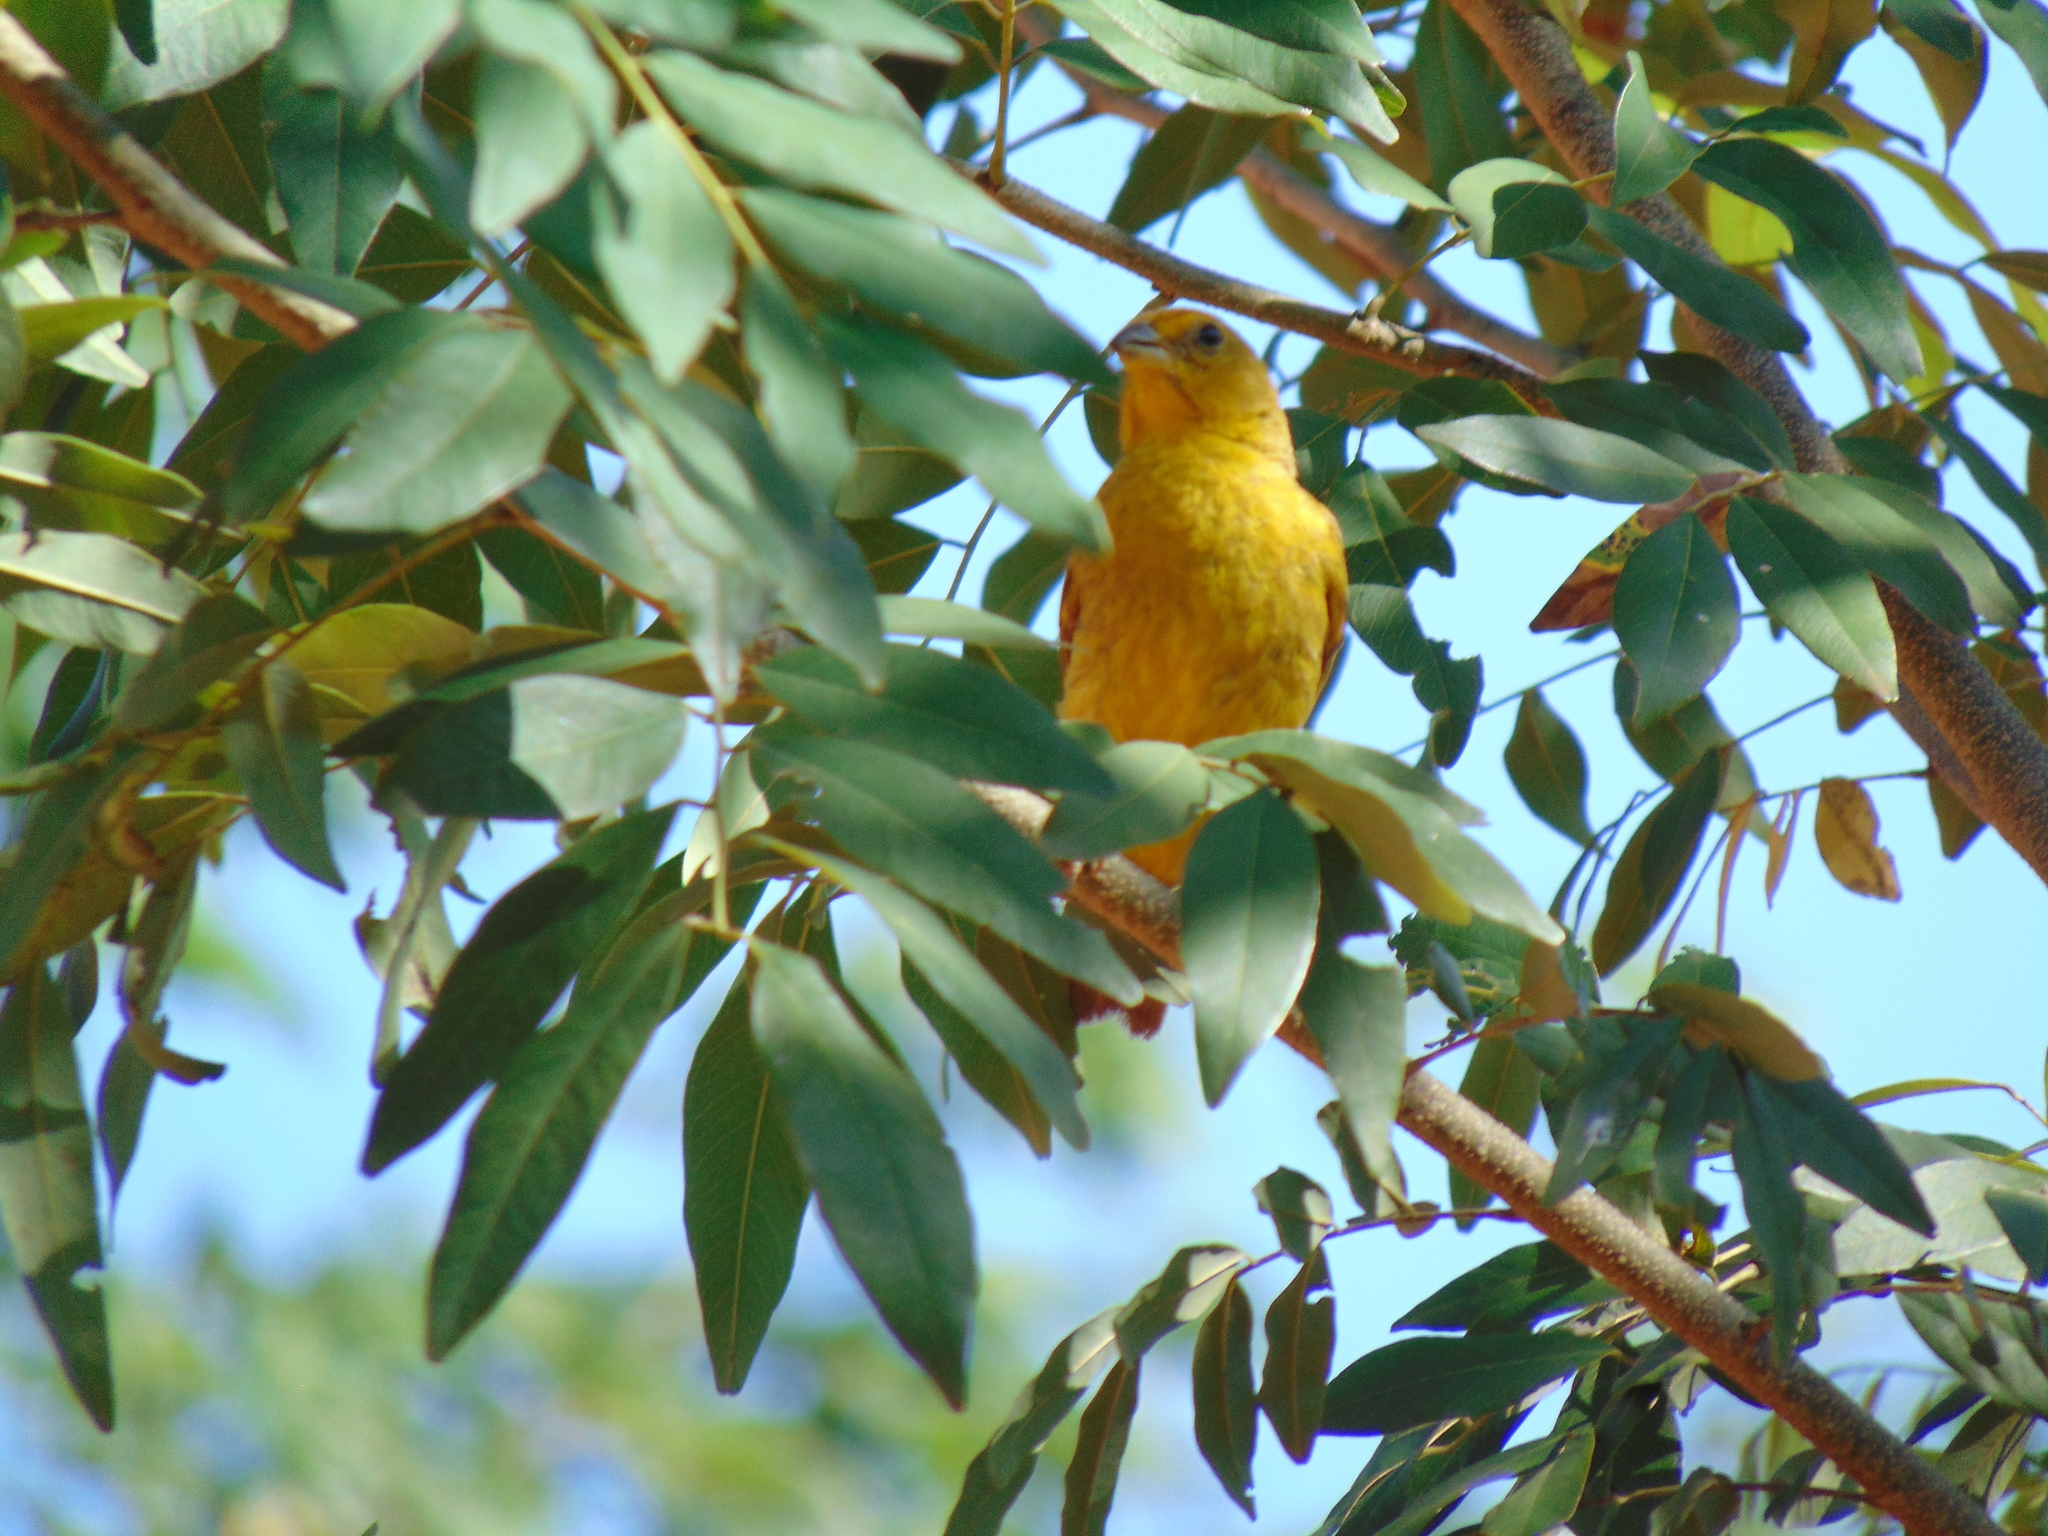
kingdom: Animalia
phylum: Chordata
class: Aves
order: Passeriformes
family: Thraupidae
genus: Sicalis
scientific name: Sicalis flaveola
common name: Saffron finch
